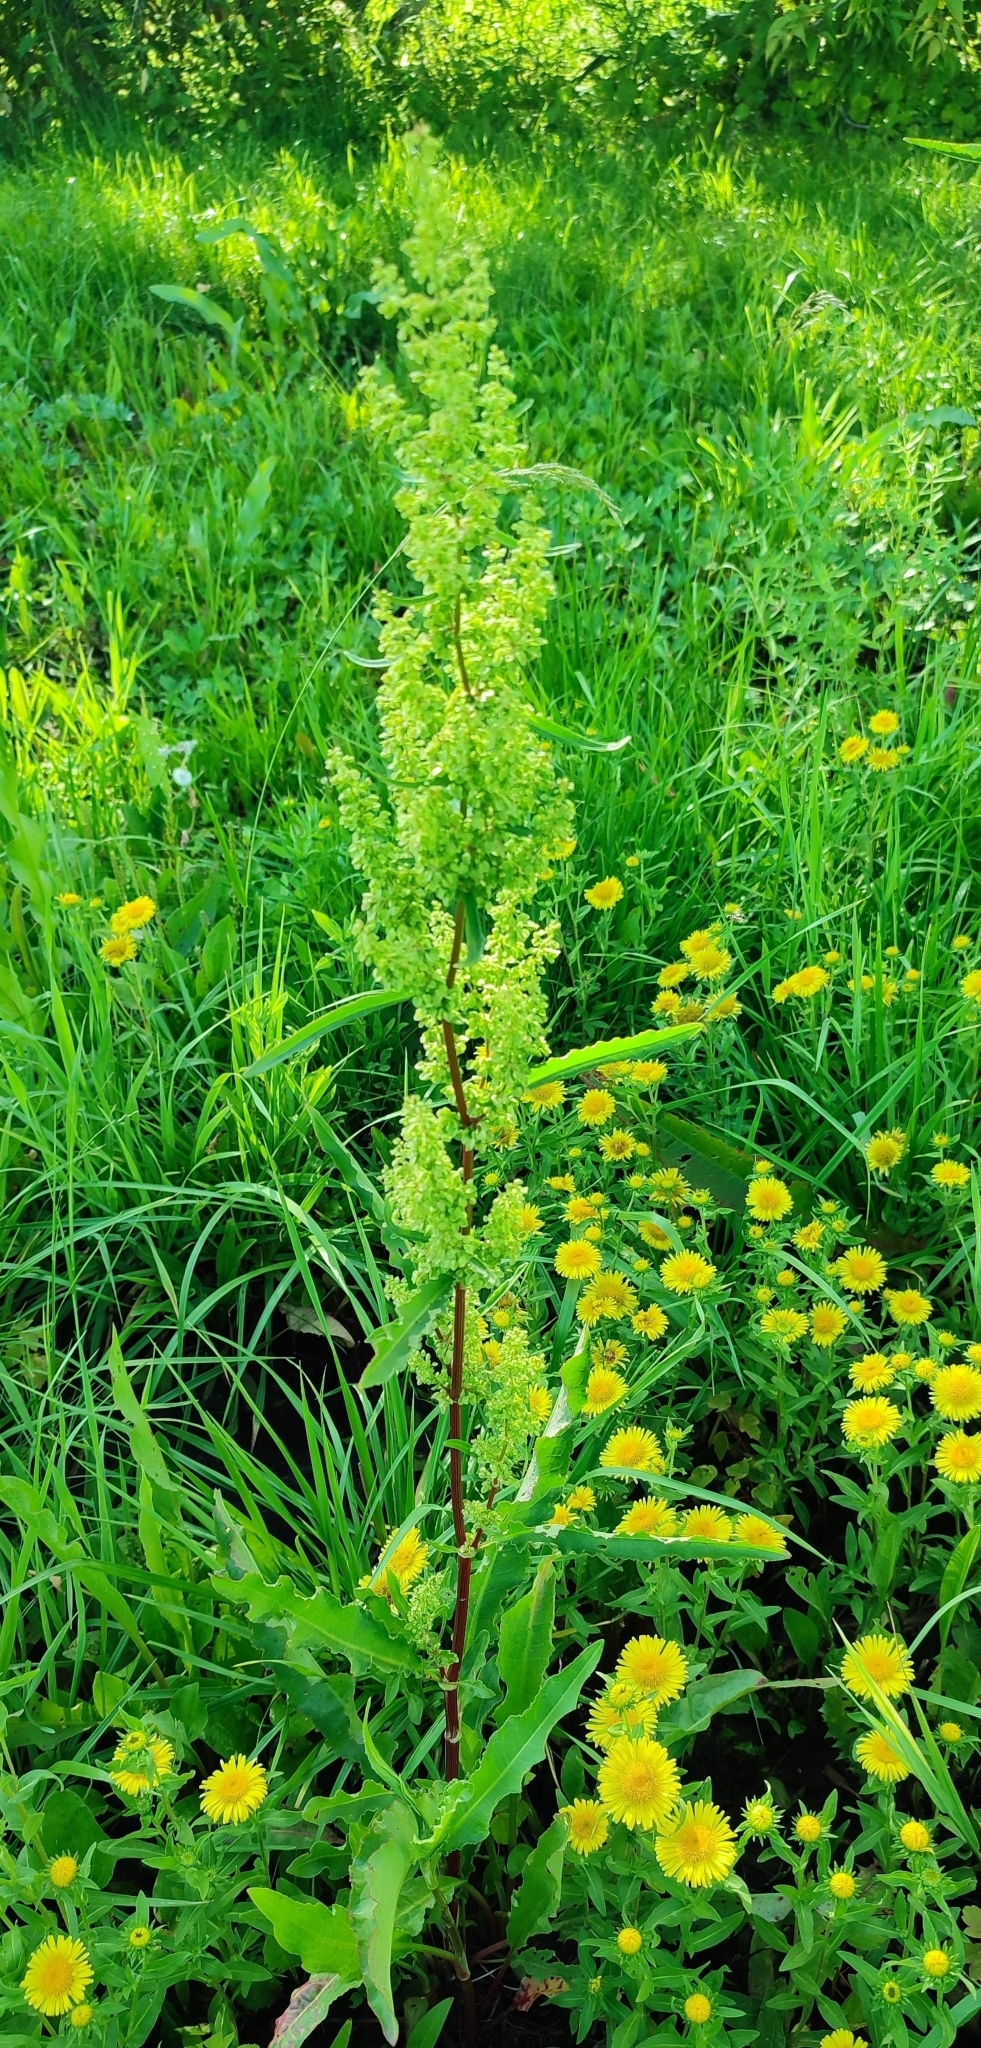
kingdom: Plantae
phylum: Tracheophyta
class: Magnoliopsida
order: Caryophyllales
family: Polygonaceae
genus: Rumex
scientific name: Rumex pseudonatronatus
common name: Field dock
